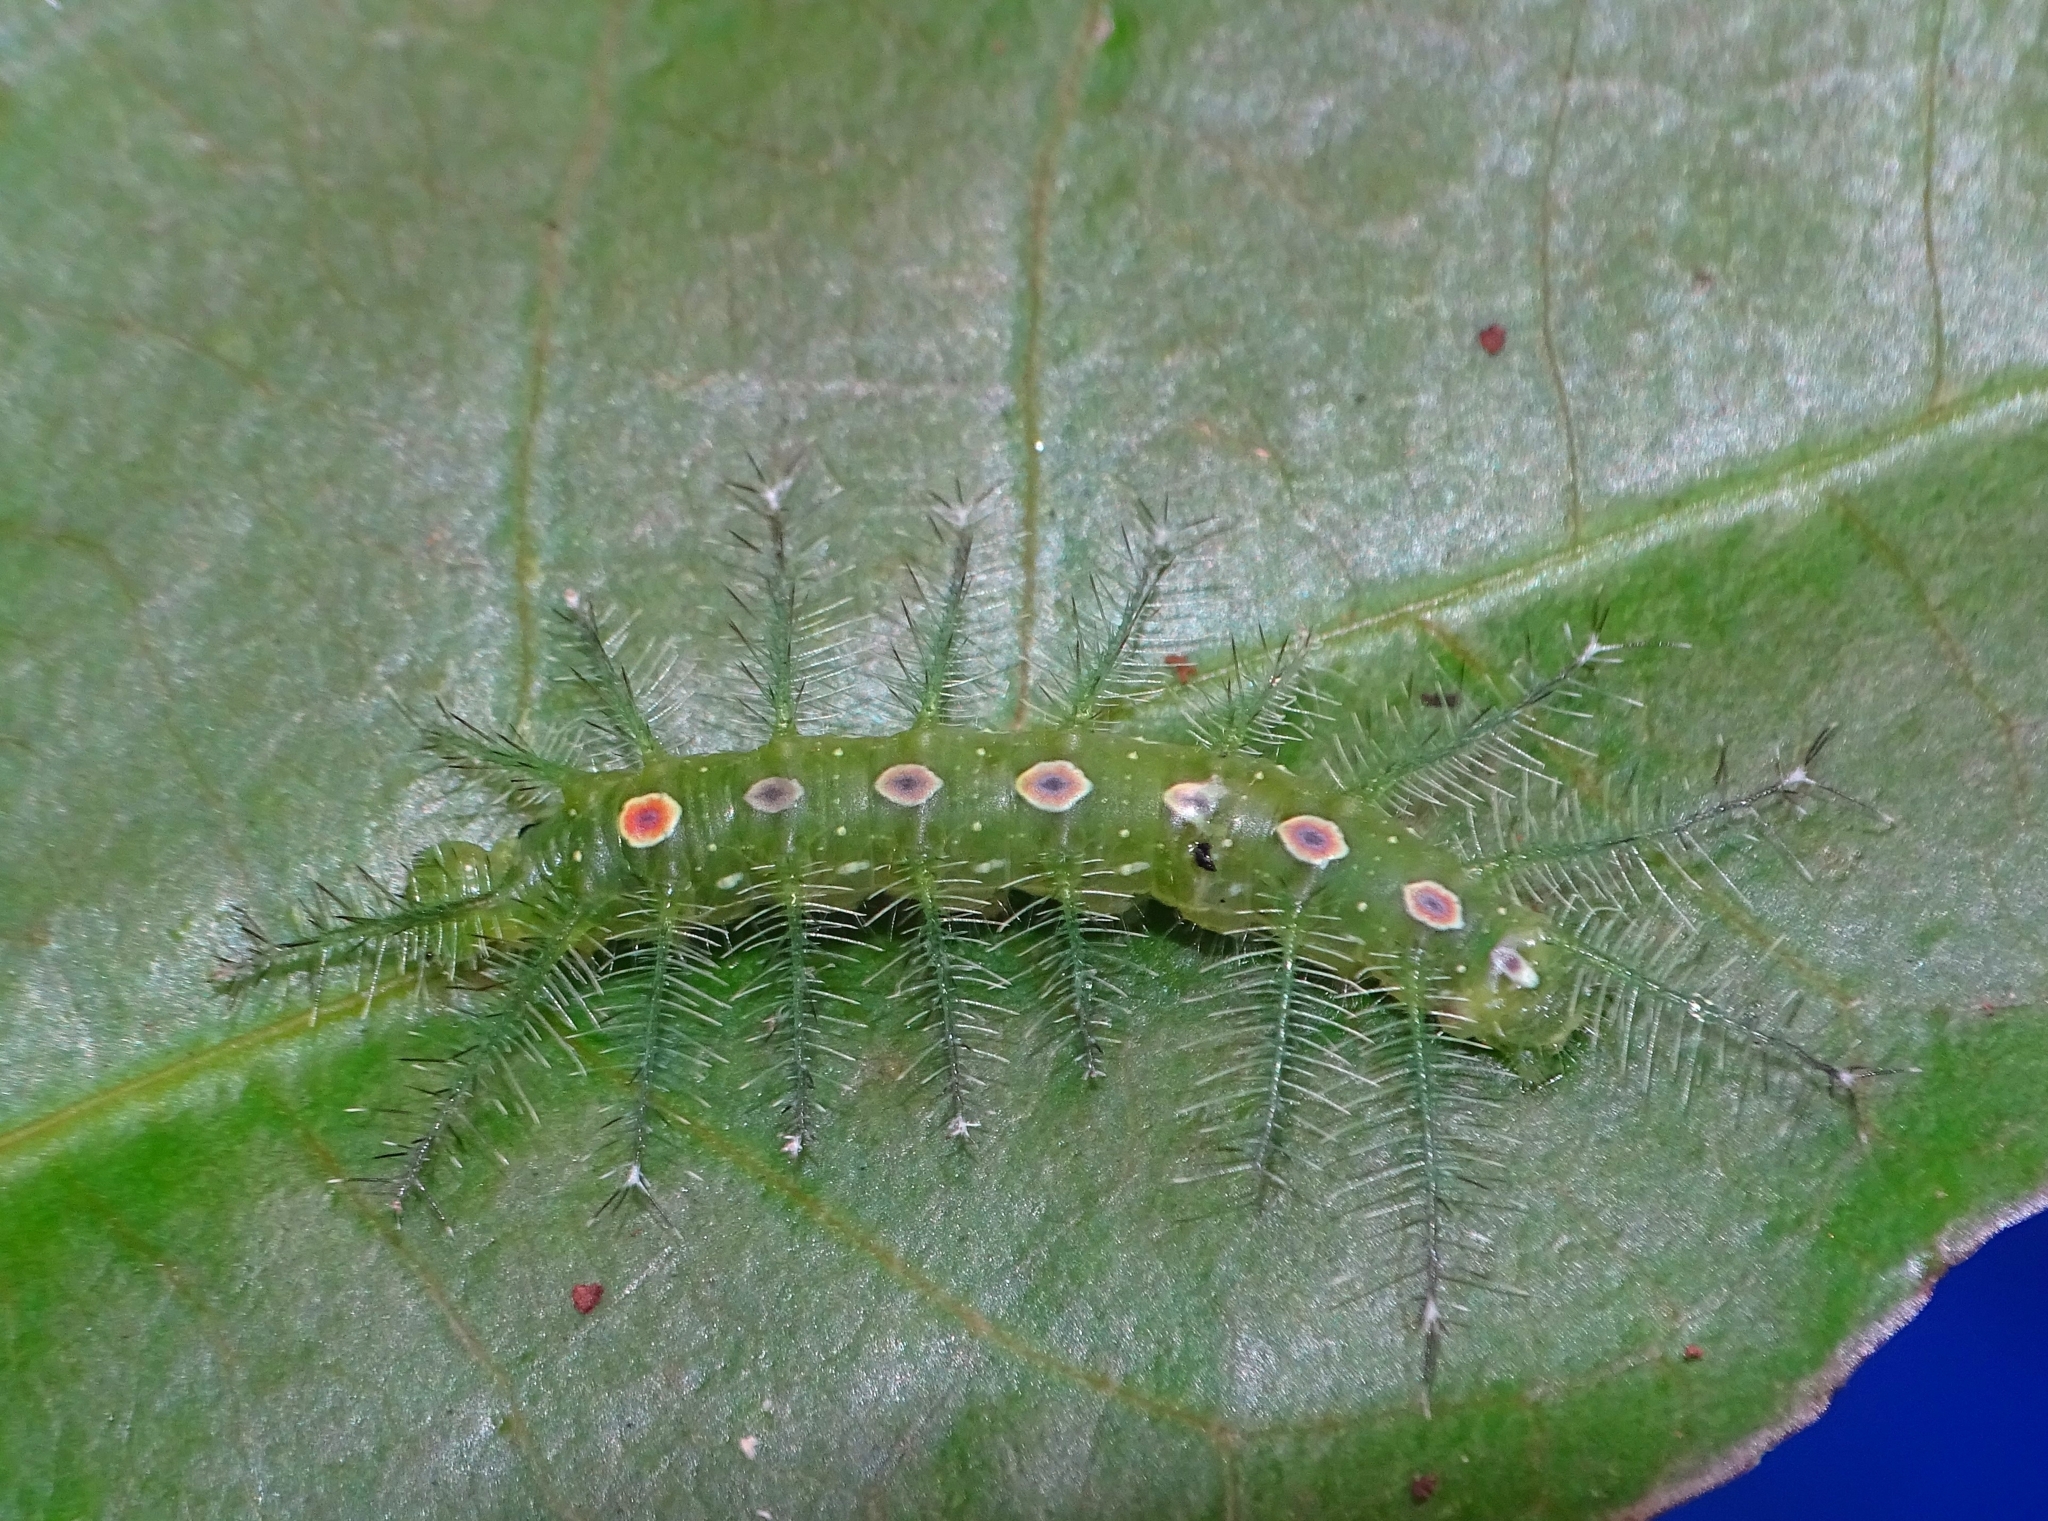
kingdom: Animalia
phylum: Arthropoda
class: Insecta
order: Lepidoptera
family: Nymphalidae
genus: Tanaecia
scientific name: Tanaecia lepidea
